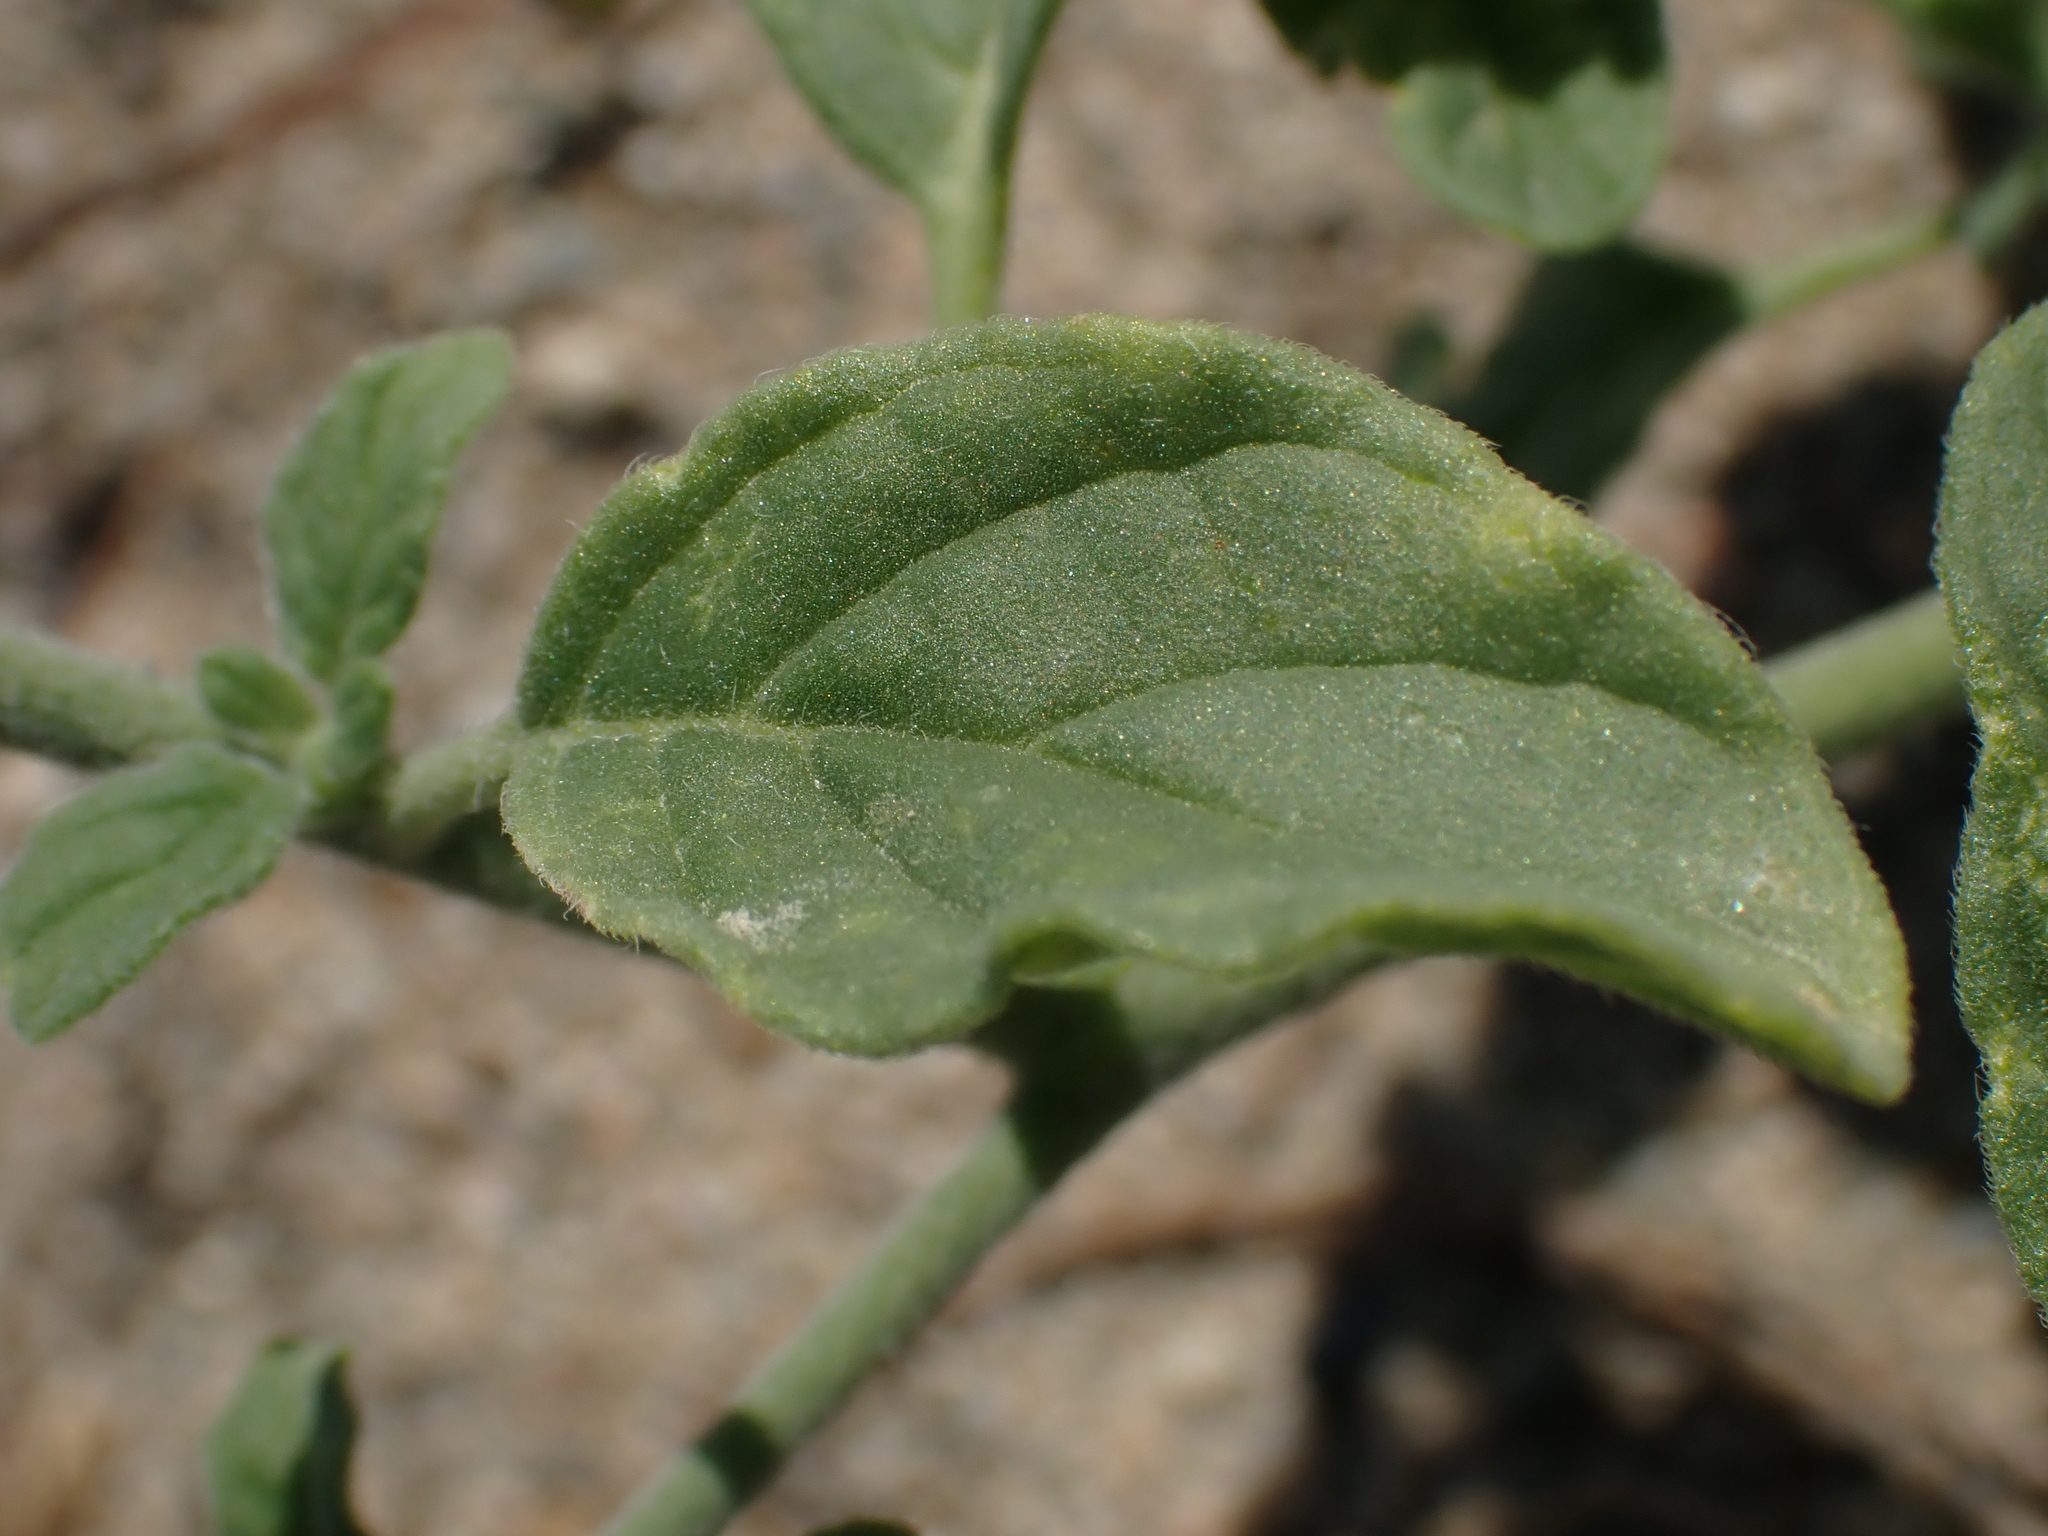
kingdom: Plantae
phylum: Tracheophyta
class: Magnoliopsida
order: Boraginales
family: Heliotropiaceae
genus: Heliotropium
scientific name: Heliotropium europaeum
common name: European heliotrope
